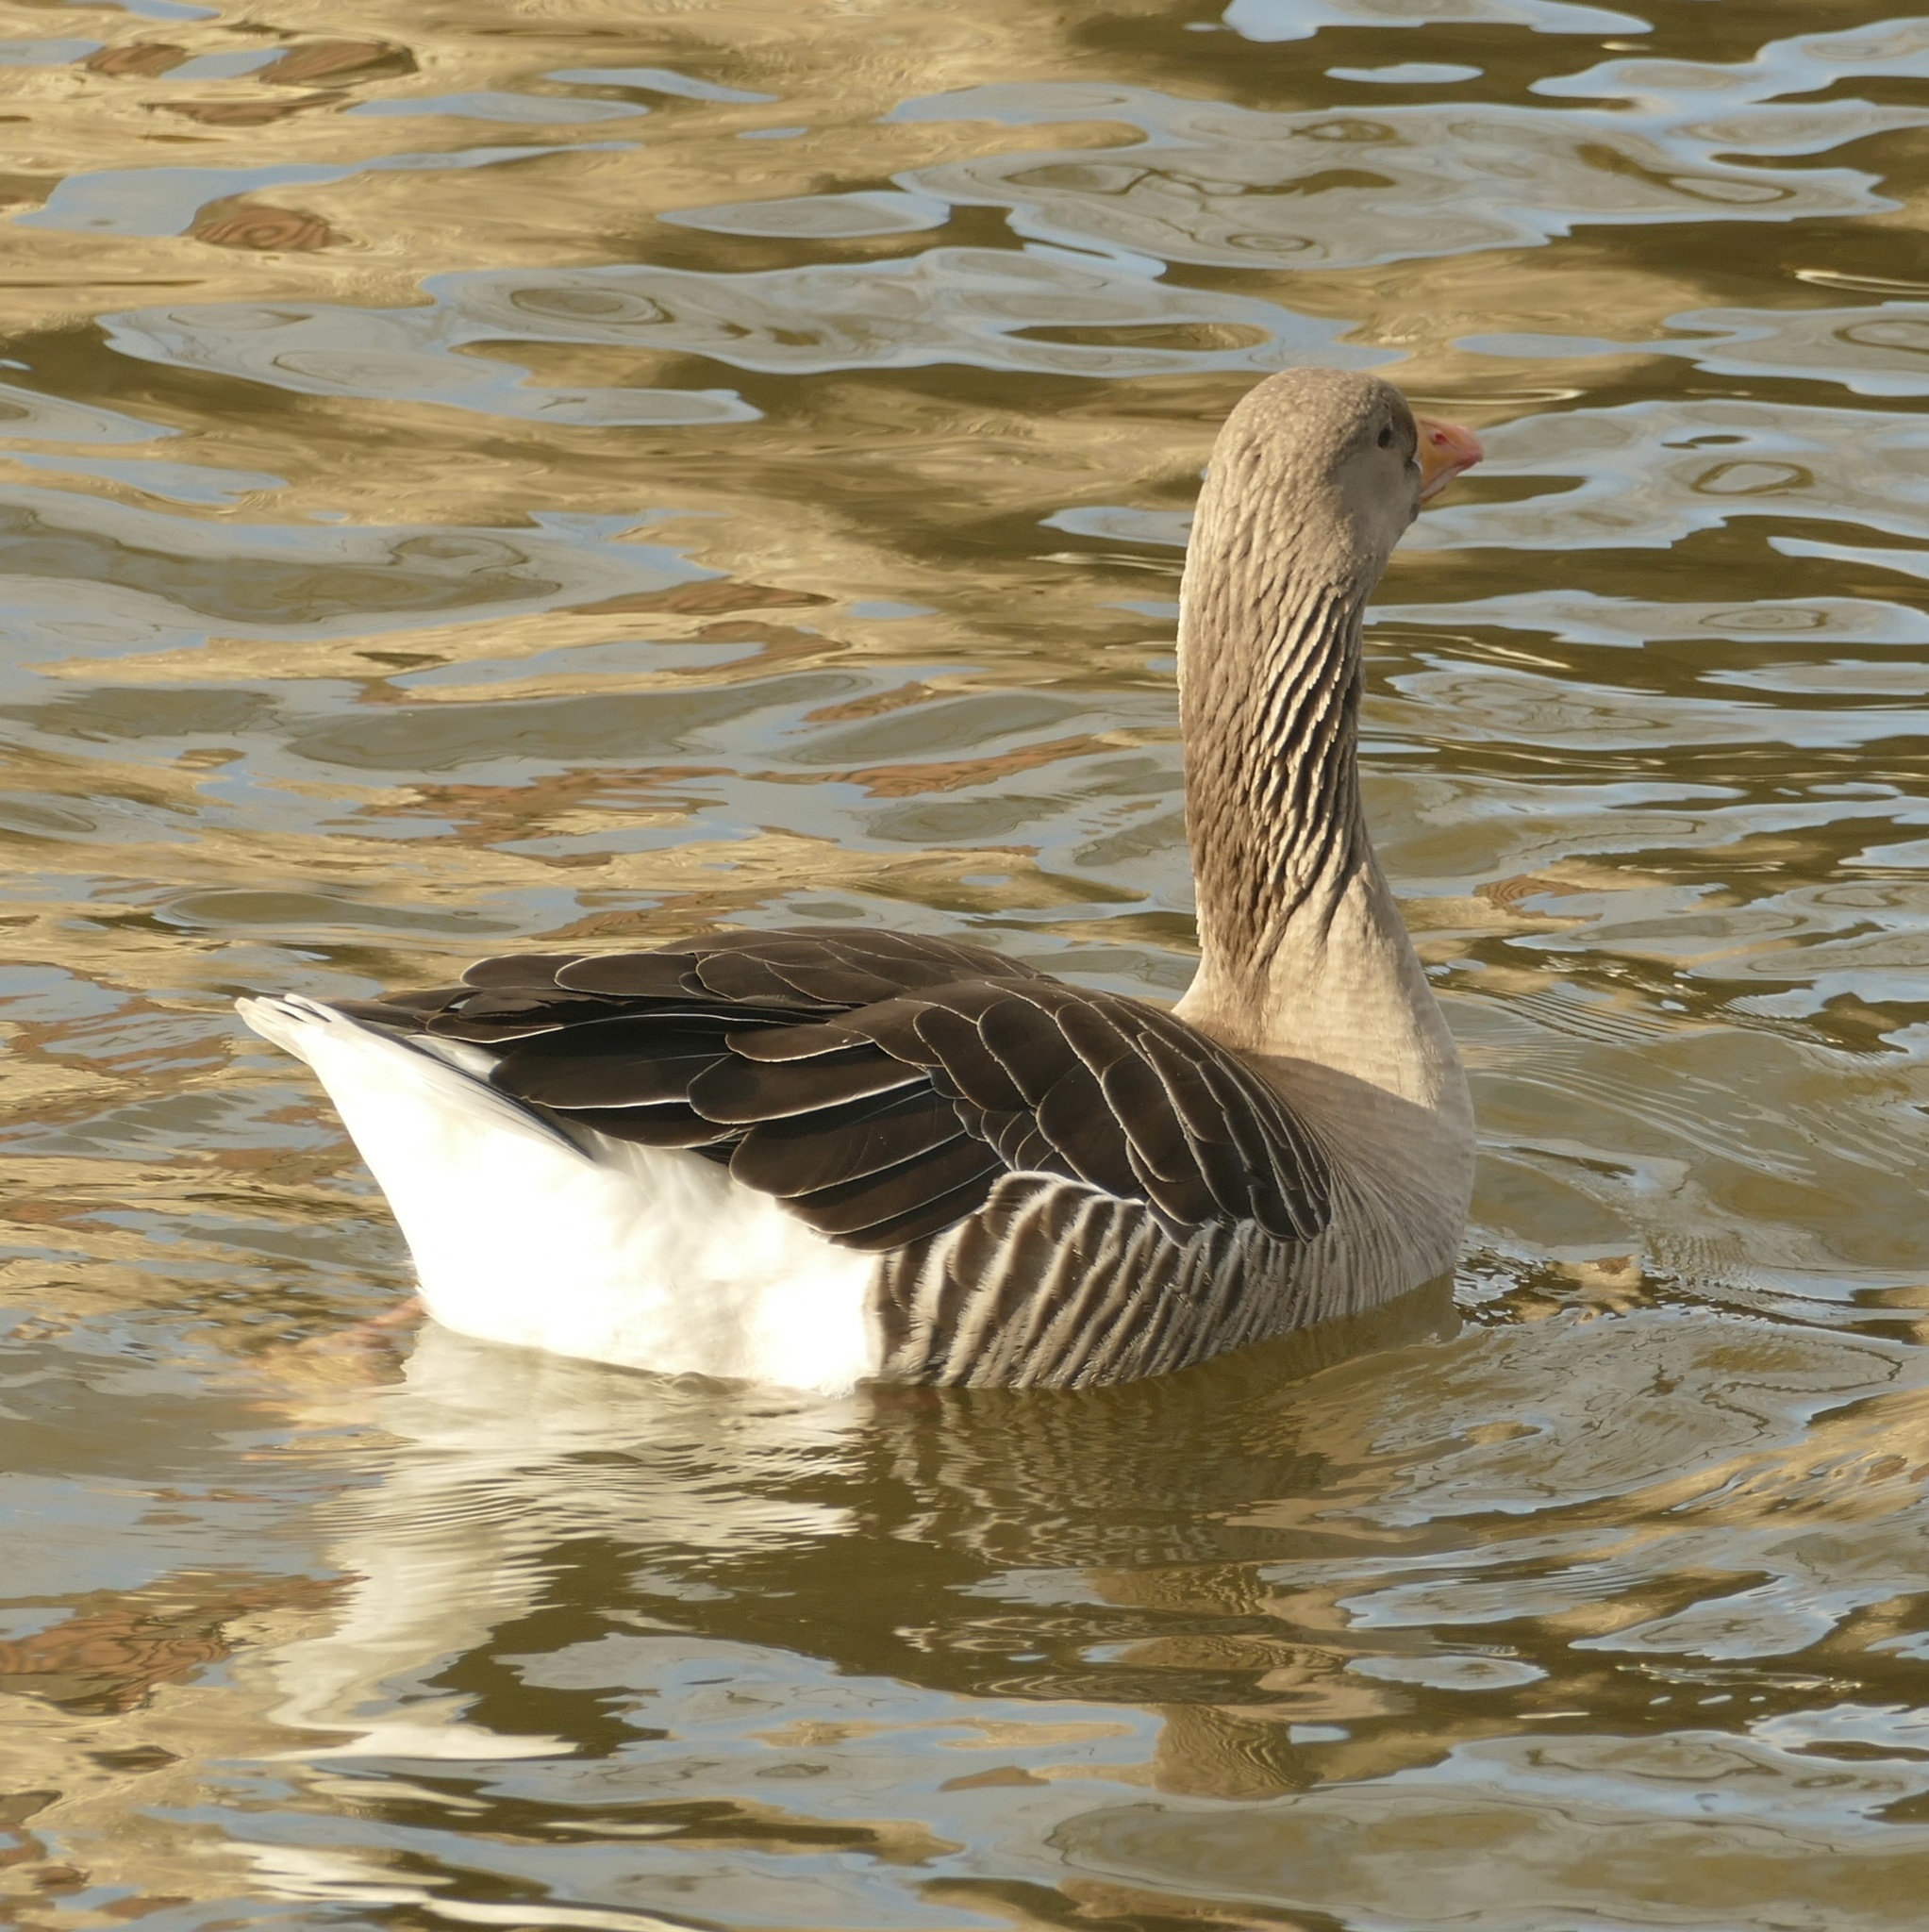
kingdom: Animalia
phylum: Chordata
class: Aves
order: Anseriformes
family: Anatidae
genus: Anser
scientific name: Anser anser
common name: Greylag goose
